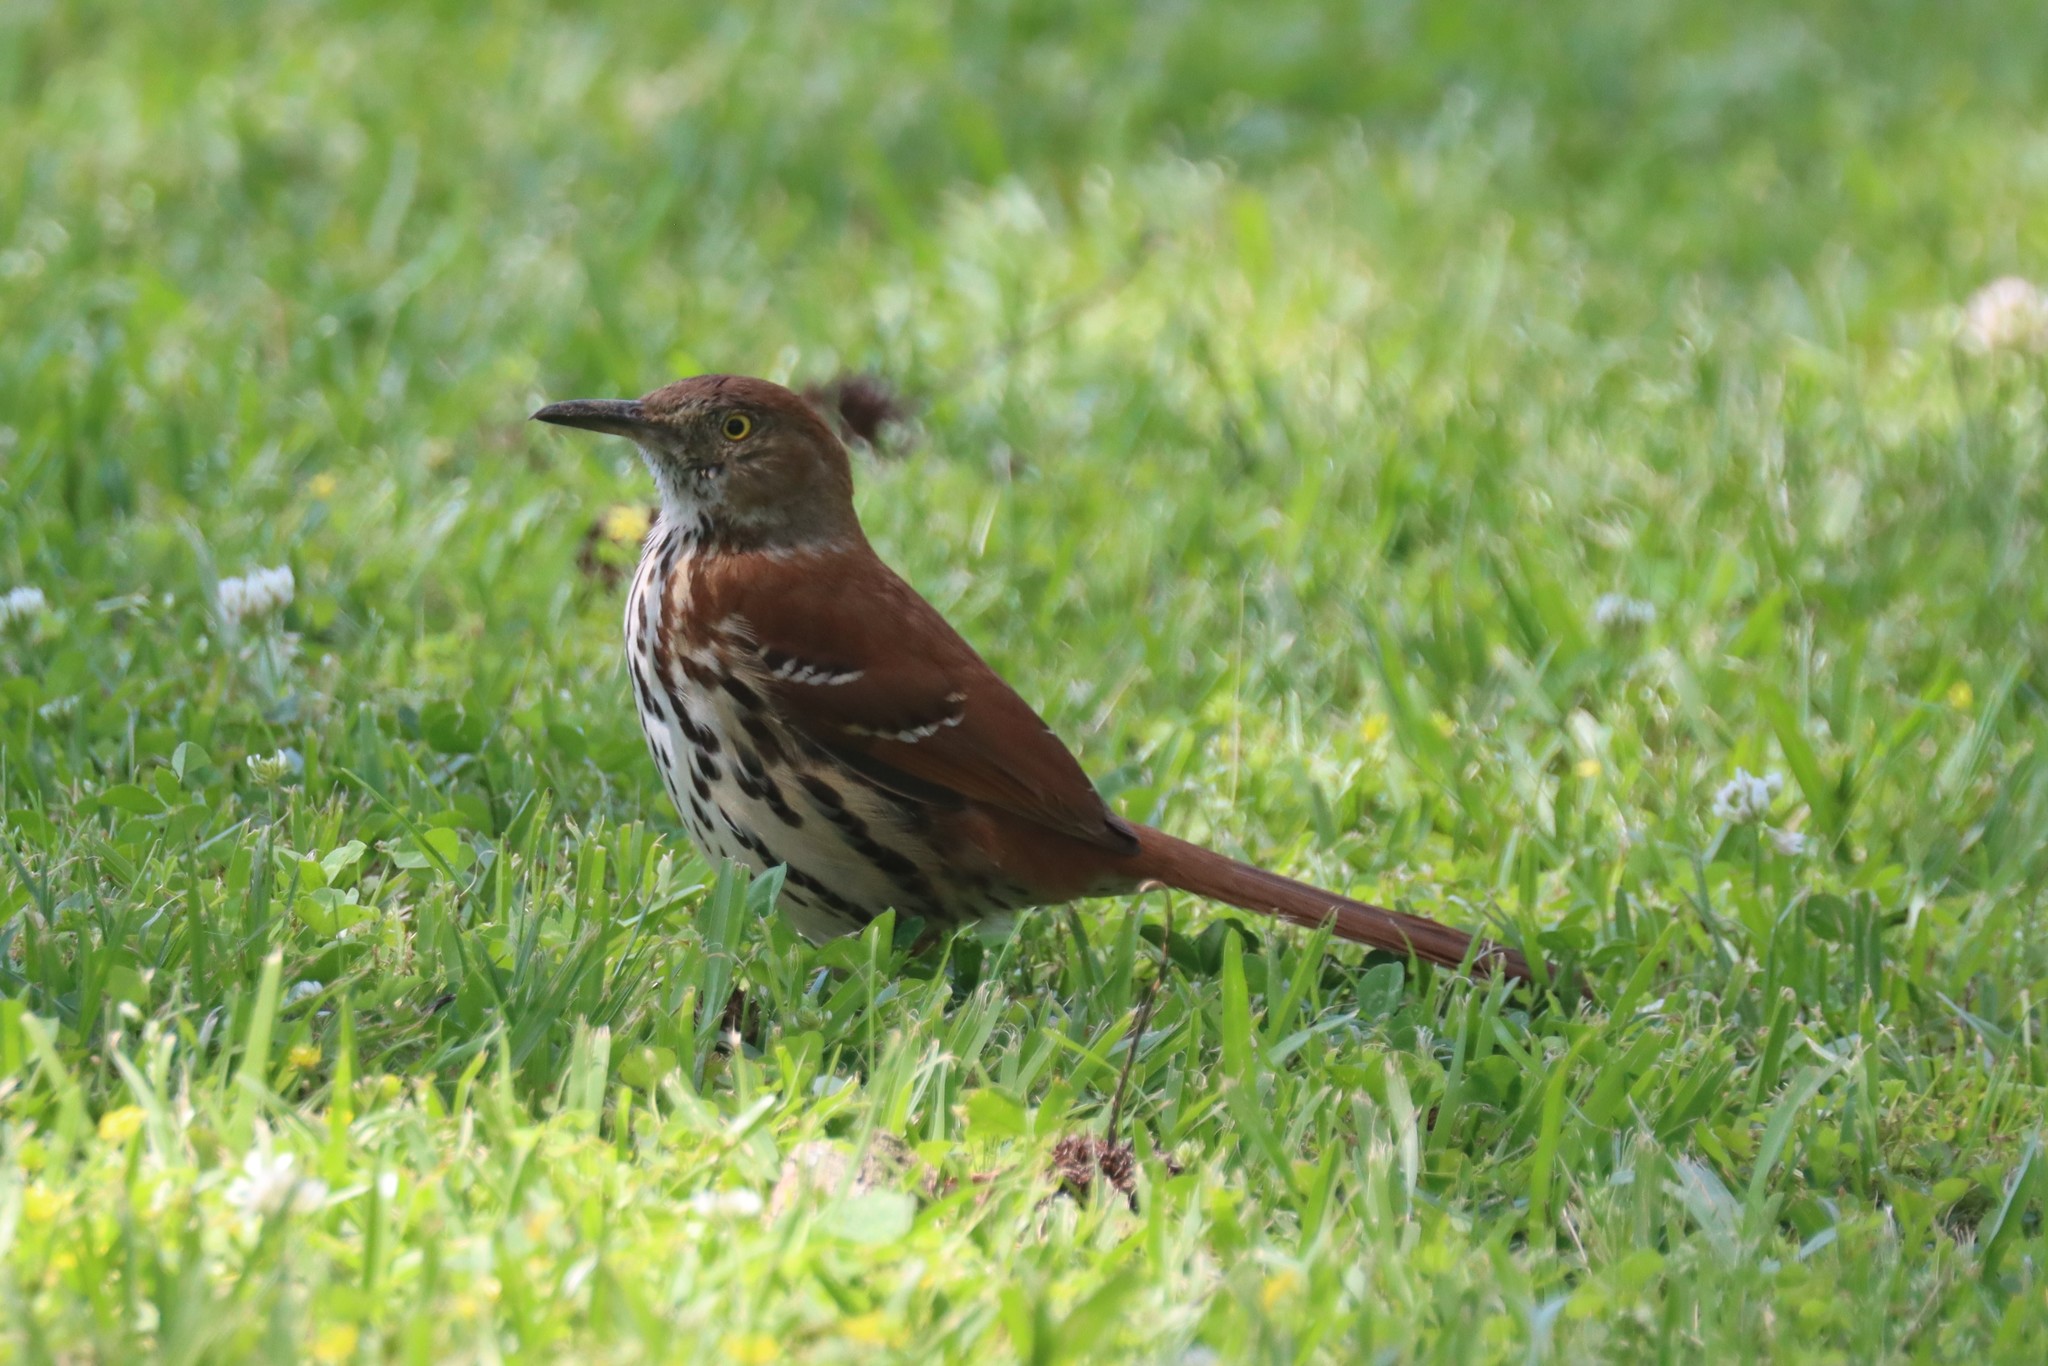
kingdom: Animalia
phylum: Chordata
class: Aves
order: Passeriformes
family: Mimidae
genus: Toxostoma
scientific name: Toxostoma rufum
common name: Brown thrasher
